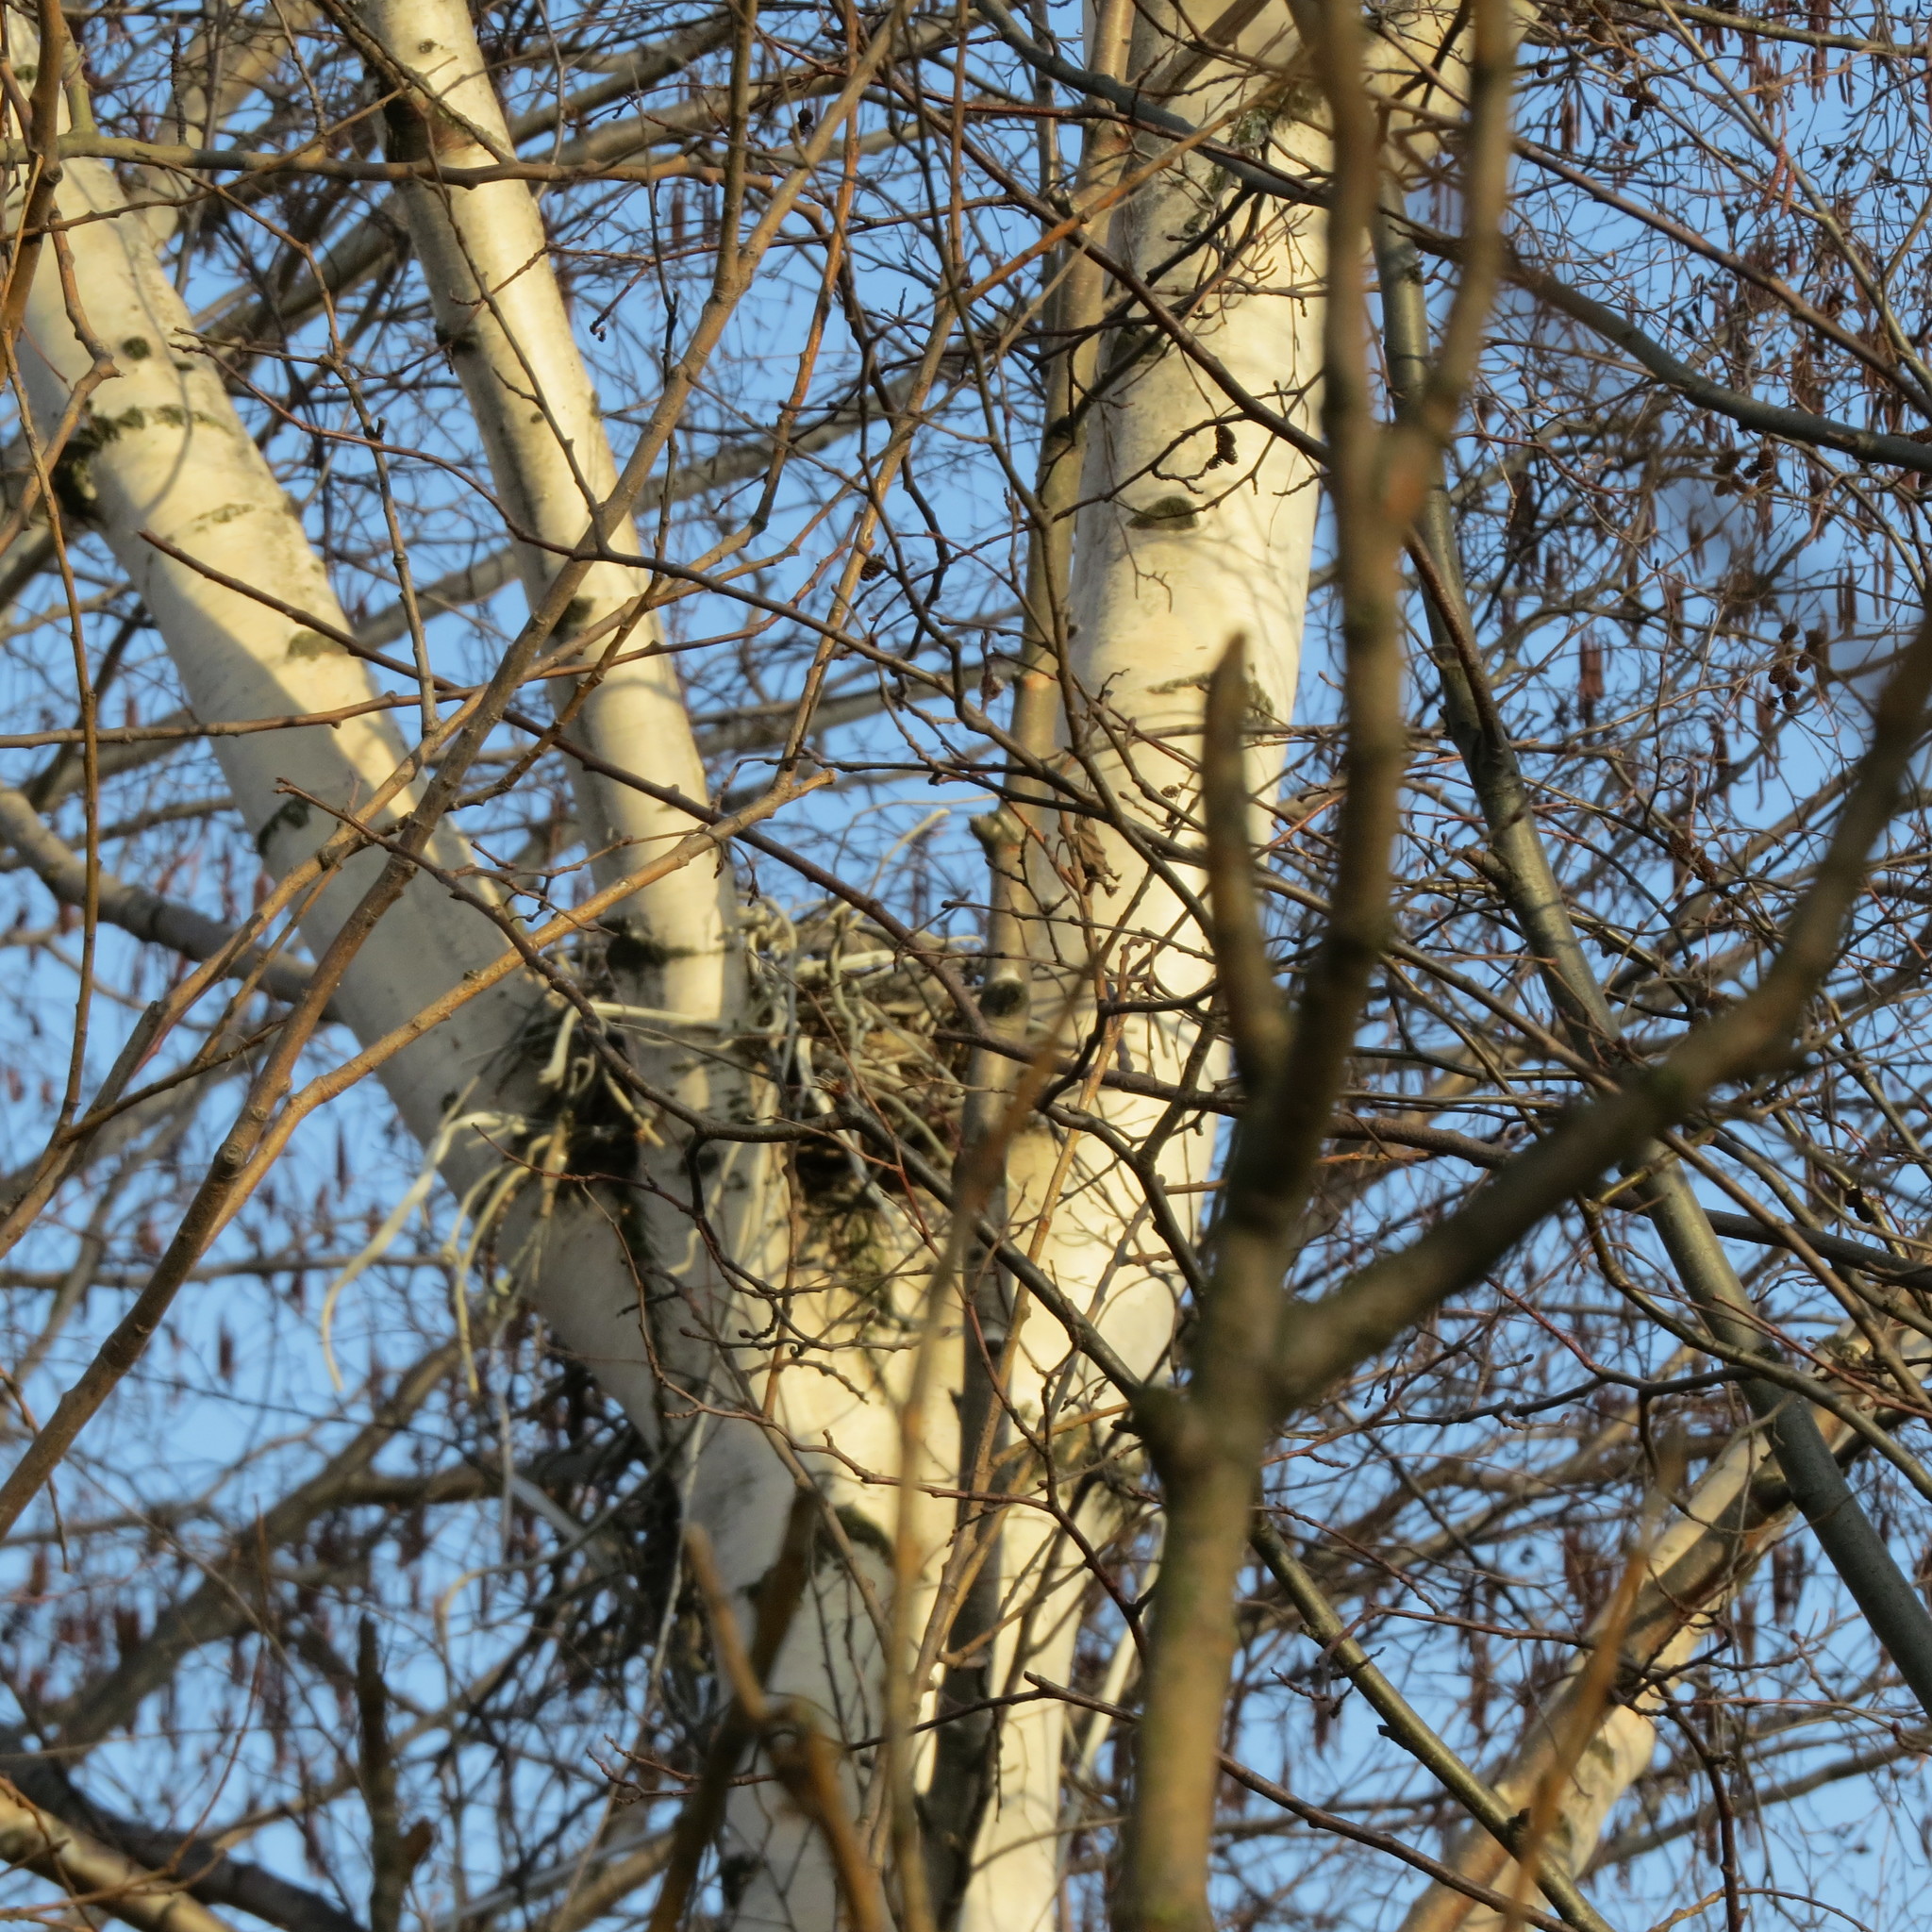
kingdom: Animalia
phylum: Chordata
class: Aves
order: Passeriformes
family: Corvidae
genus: Corvus
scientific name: Corvus cornix
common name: Hooded crow
